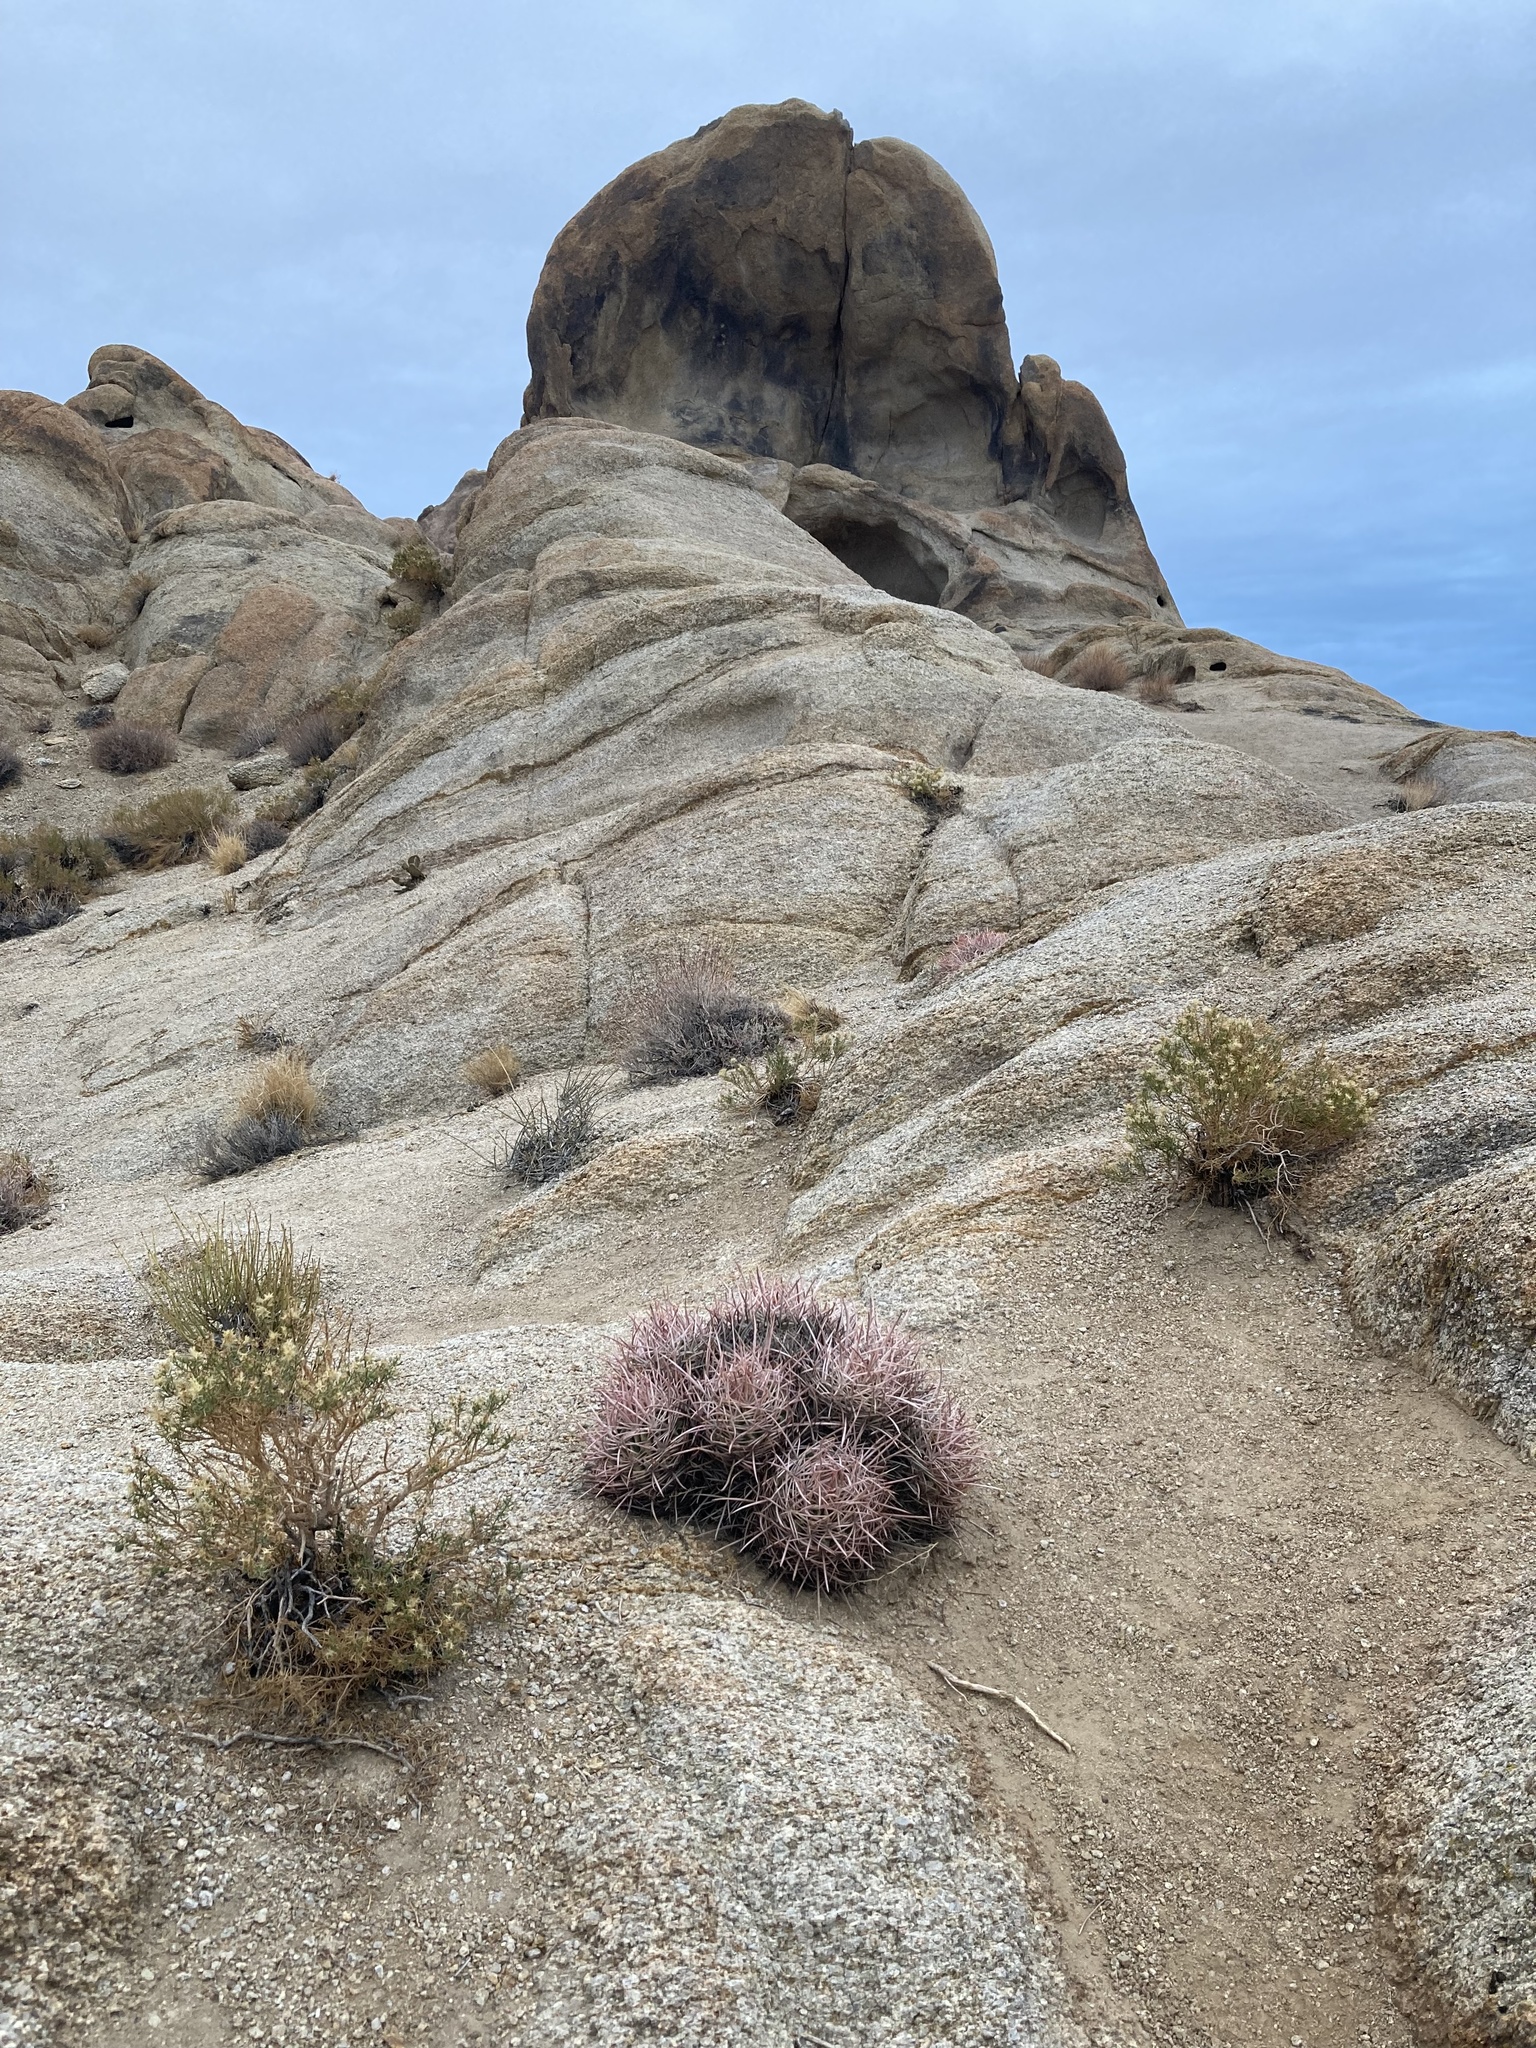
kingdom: Plantae
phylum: Tracheophyta
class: Magnoliopsida
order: Caryophyllales
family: Cactaceae
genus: Echinocactus
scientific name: Echinocactus polycephalus
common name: Cottontop cactus
